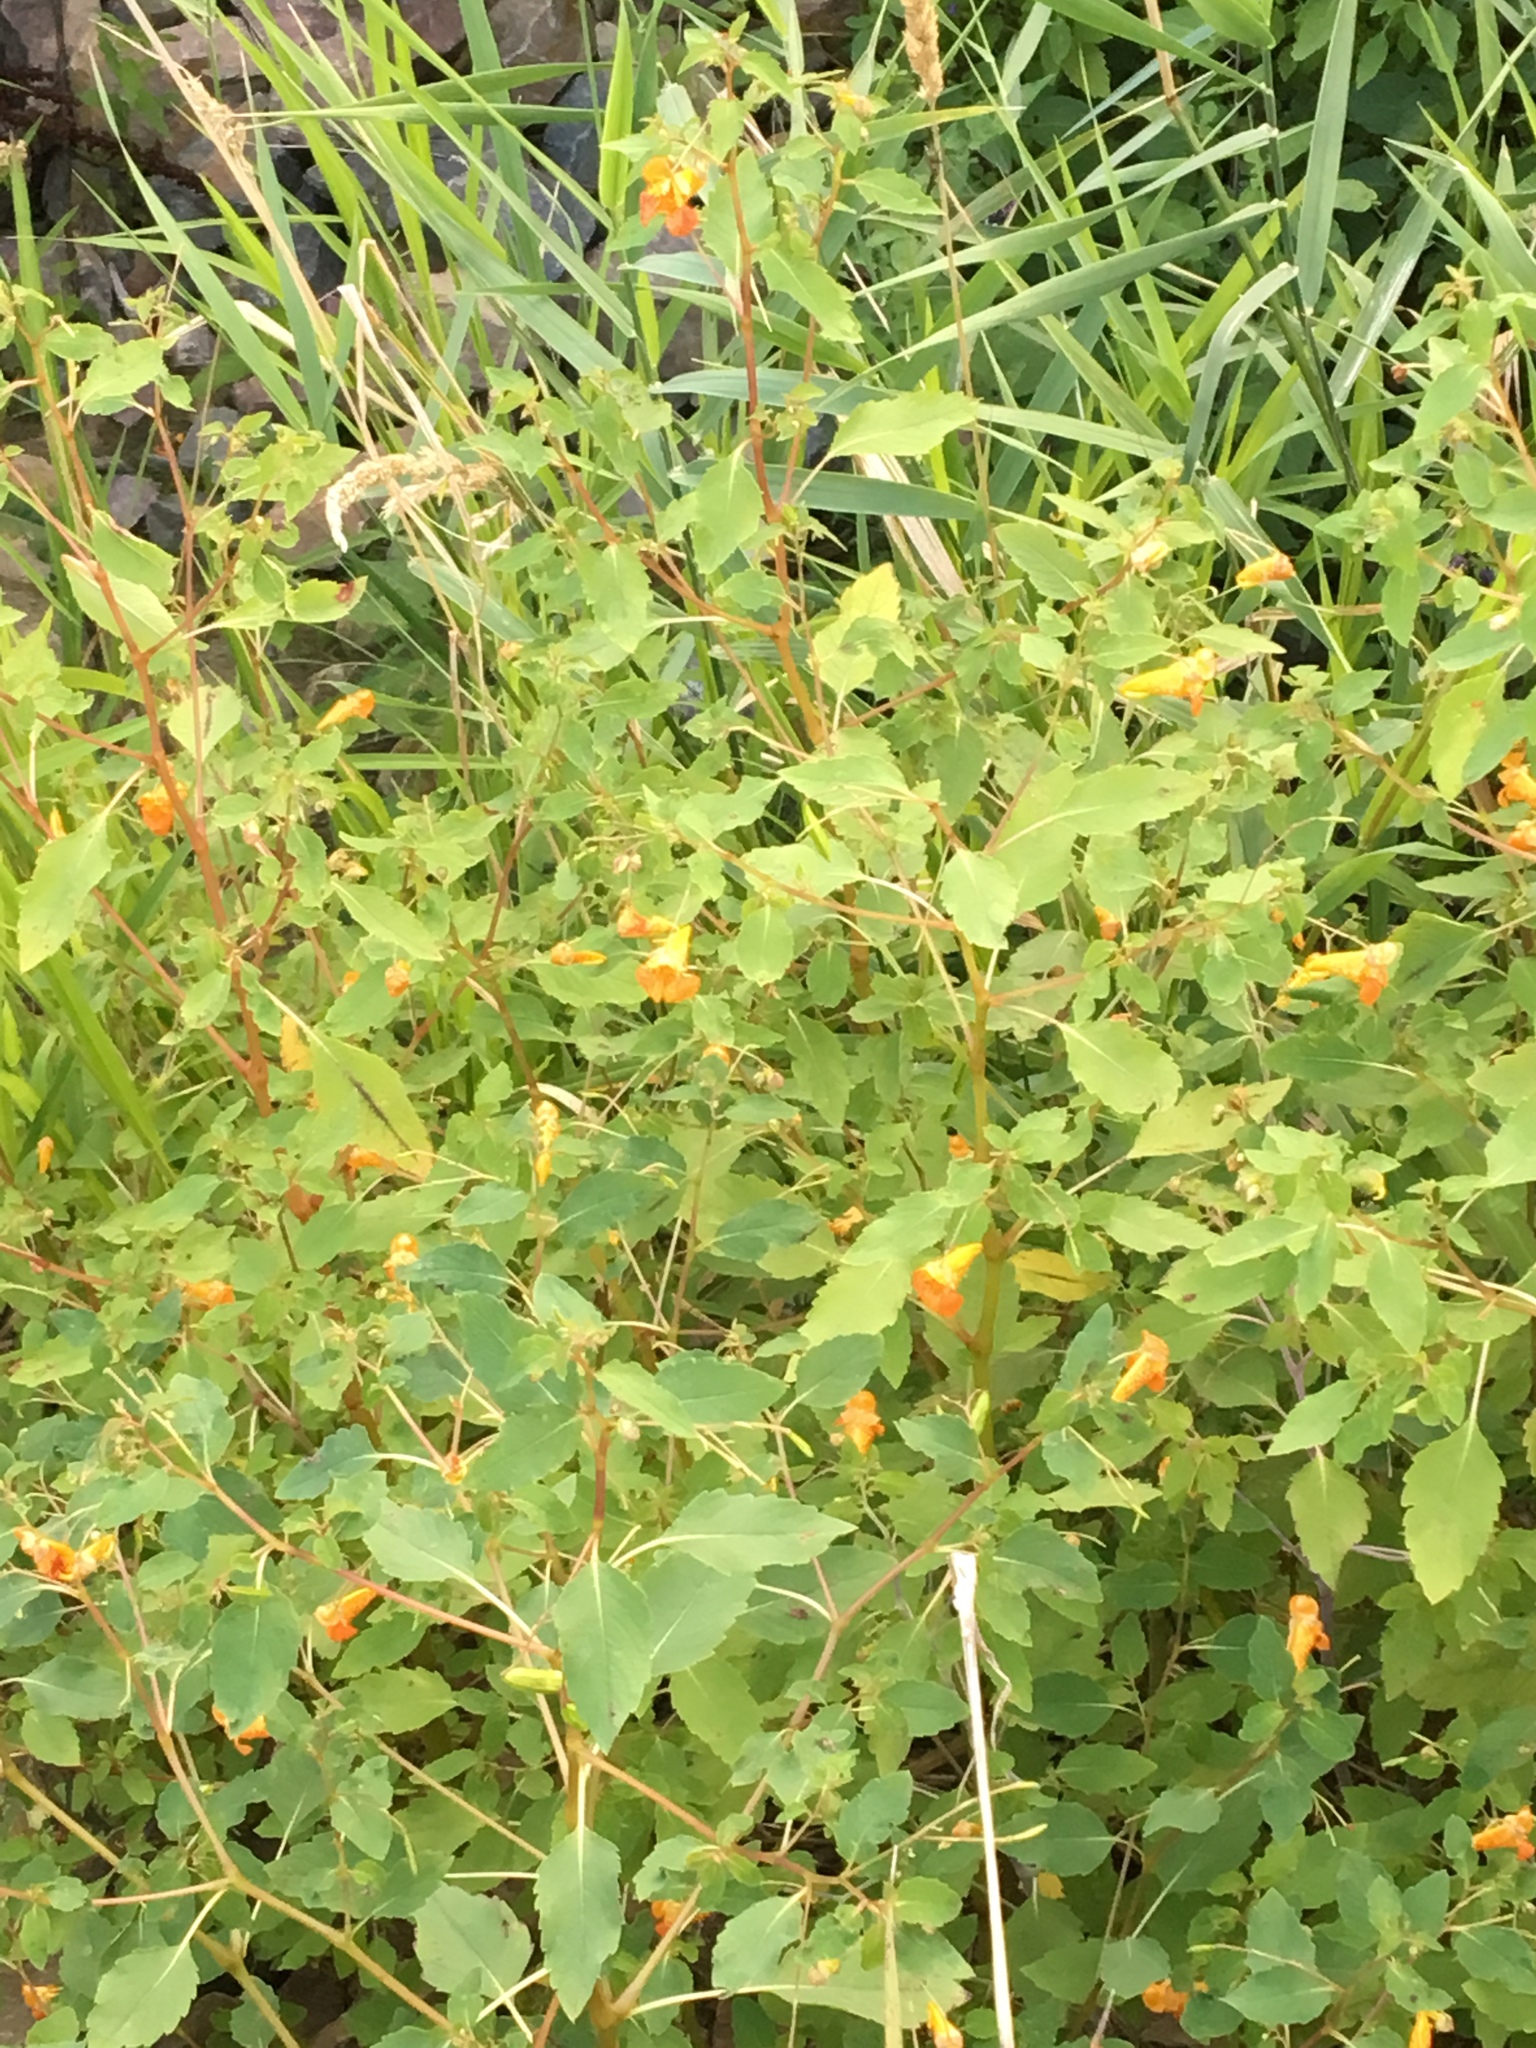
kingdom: Plantae
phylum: Tracheophyta
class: Magnoliopsida
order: Ericales
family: Balsaminaceae
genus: Impatiens
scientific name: Impatiens capensis
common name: Orange balsam
